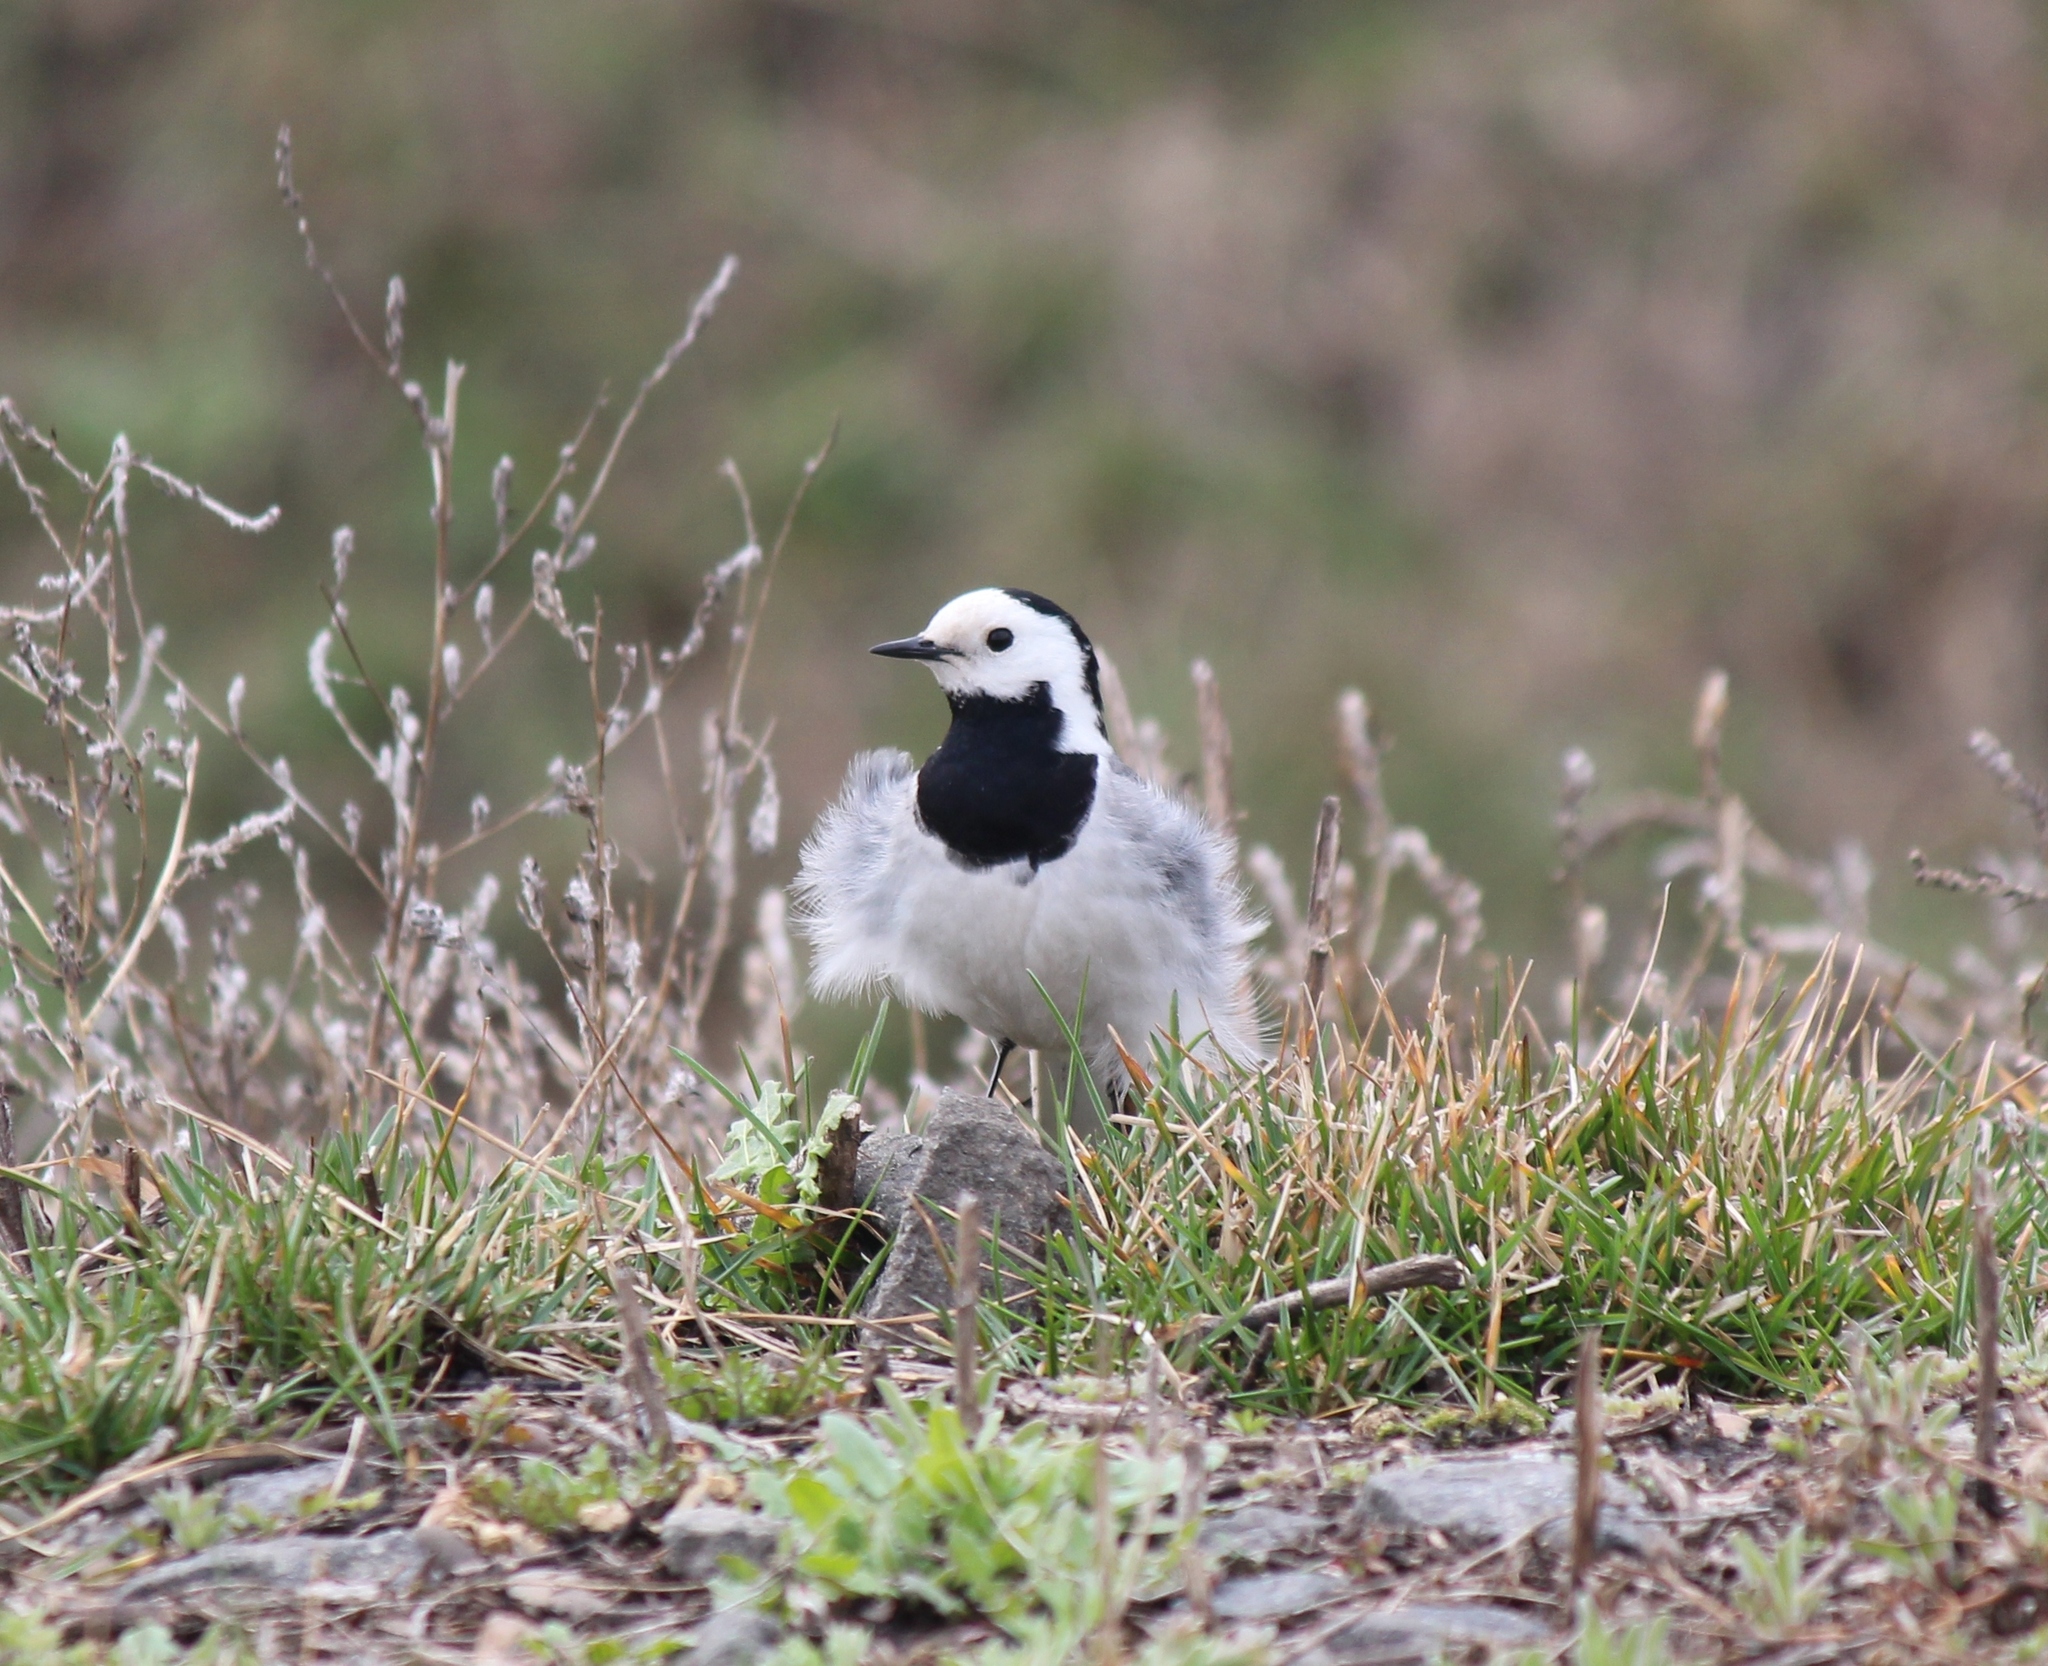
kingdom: Animalia
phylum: Chordata
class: Aves
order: Passeriformes
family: Motacillidae
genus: Motacilla
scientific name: Motacilla alba
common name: White wagtail
